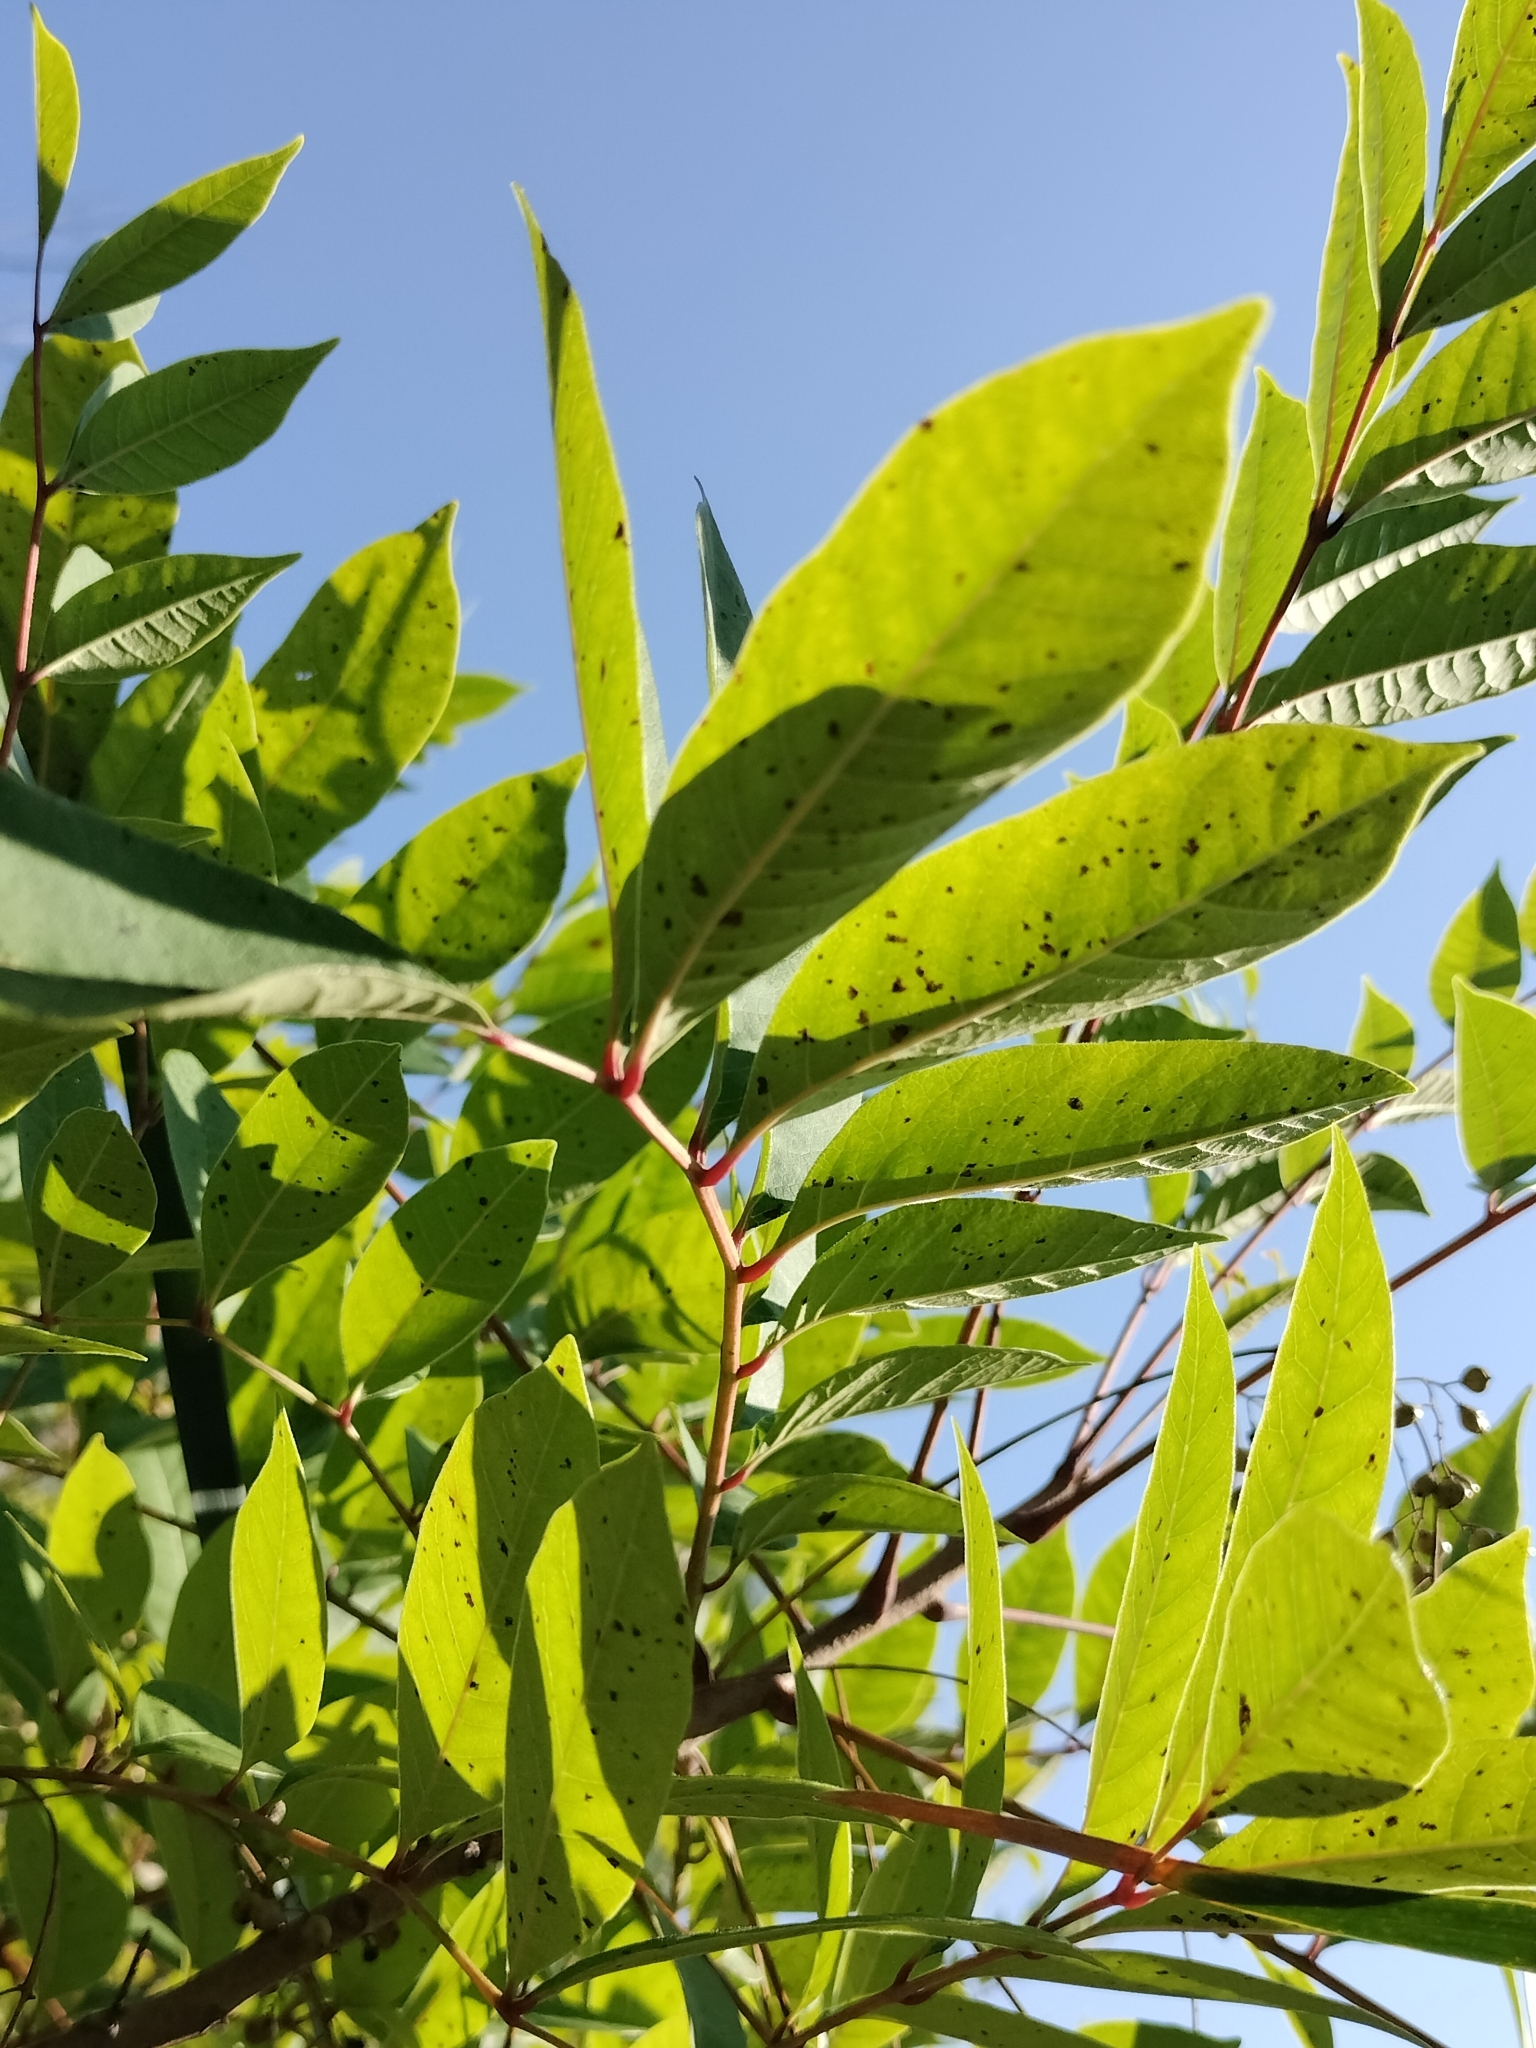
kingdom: Plantae
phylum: Tracheophyta
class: Magnoliopsida
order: Sapindales
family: Anacardiaceae
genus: Toxicodendron
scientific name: Toxicodendron vernix
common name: Poison sumac
